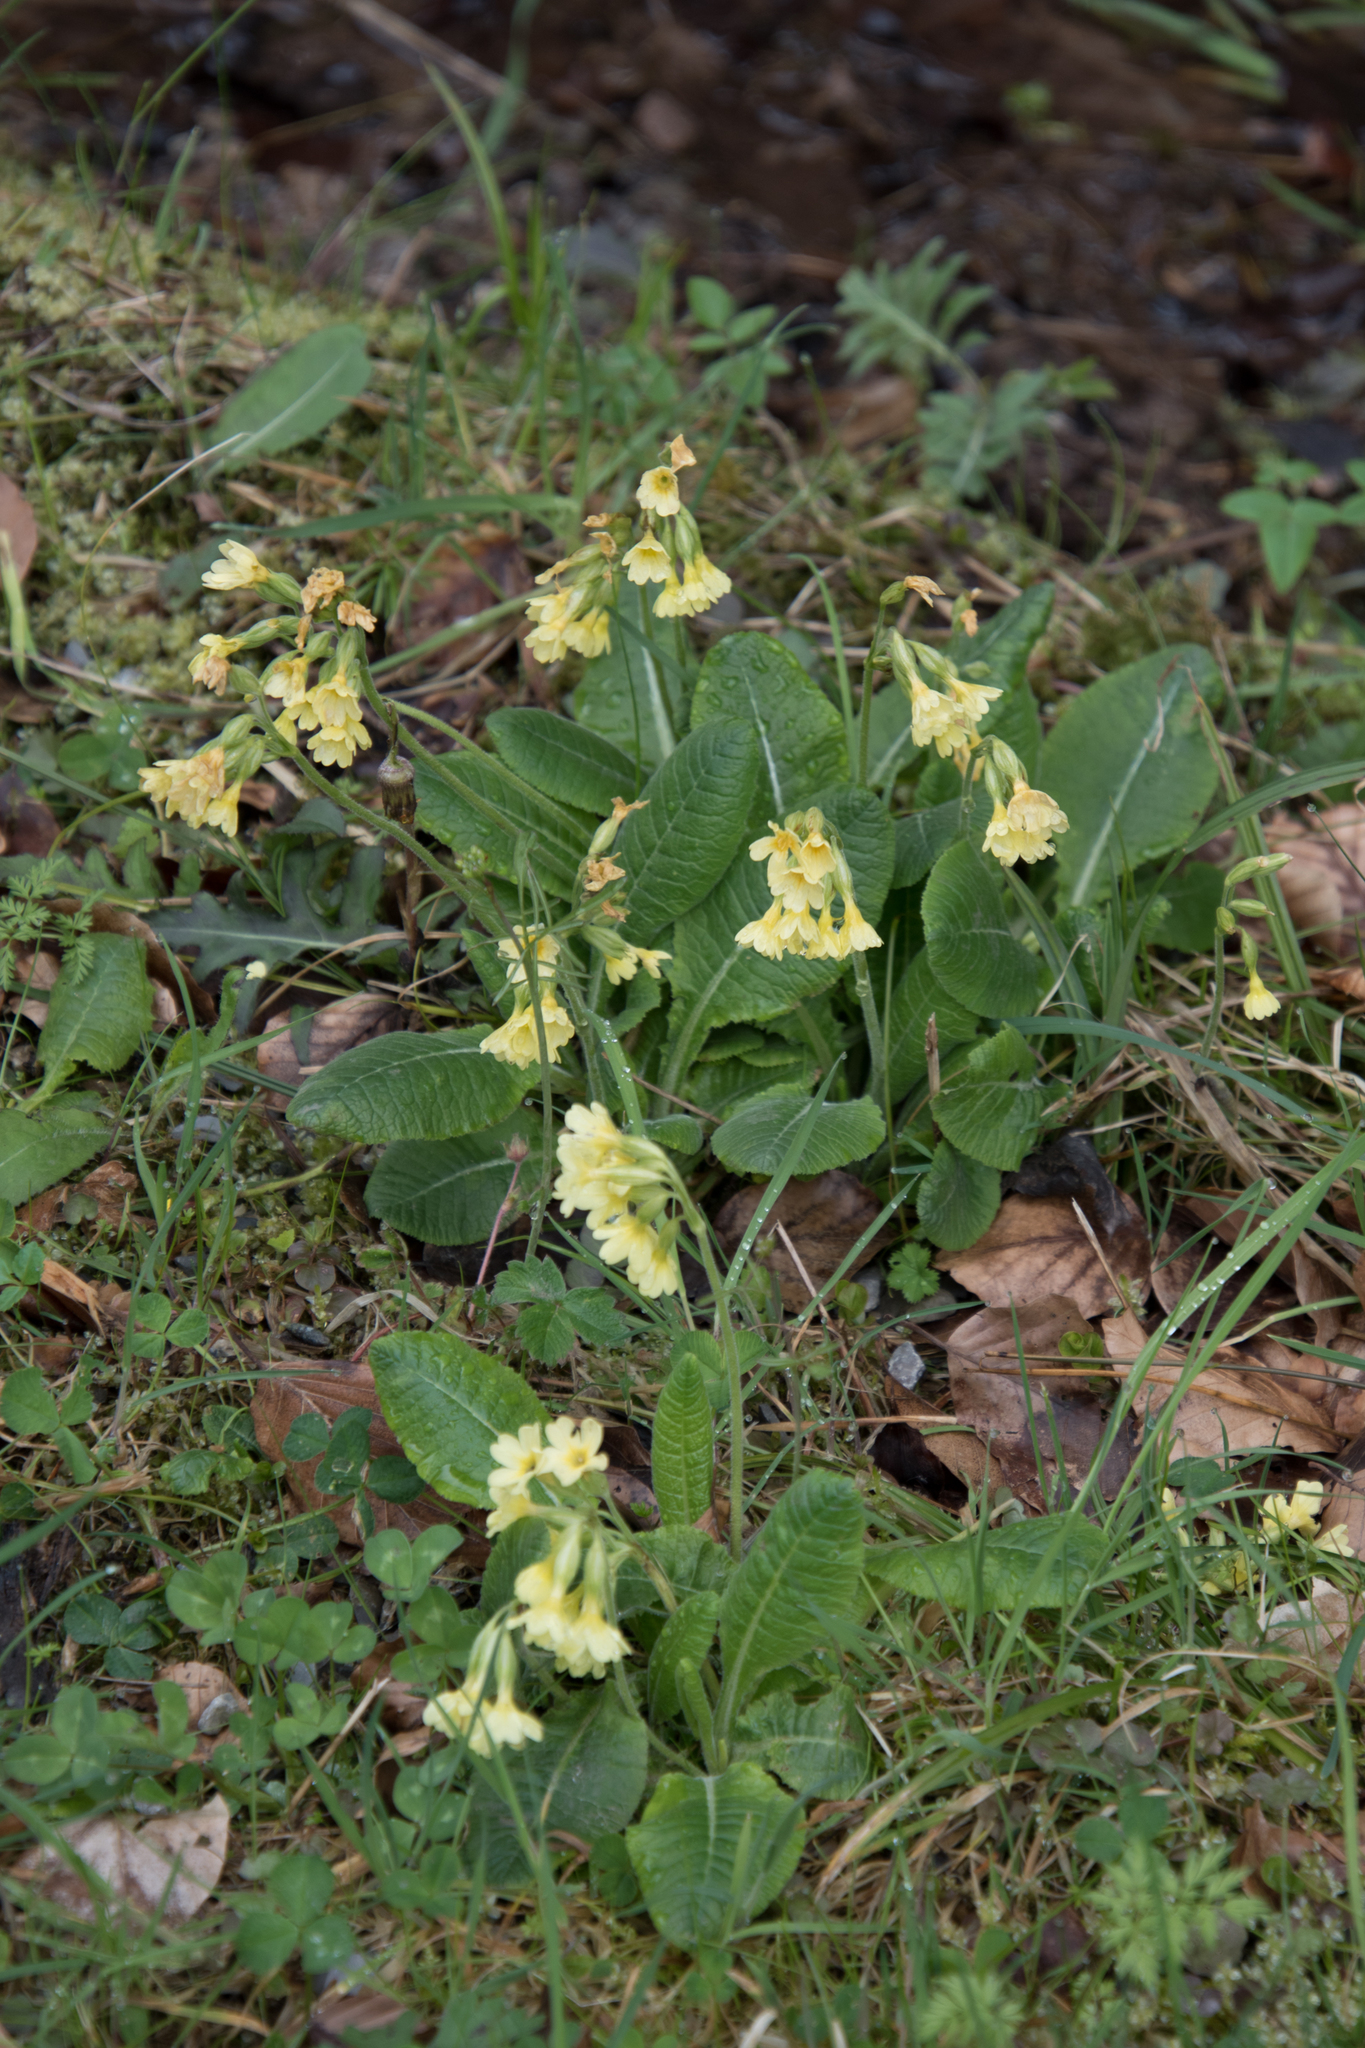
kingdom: Plantae
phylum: Tracheophyta
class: Magnoliopsida
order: Ericales
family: Primulaceae
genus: Primula
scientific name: Primula elatior
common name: Oxlip
